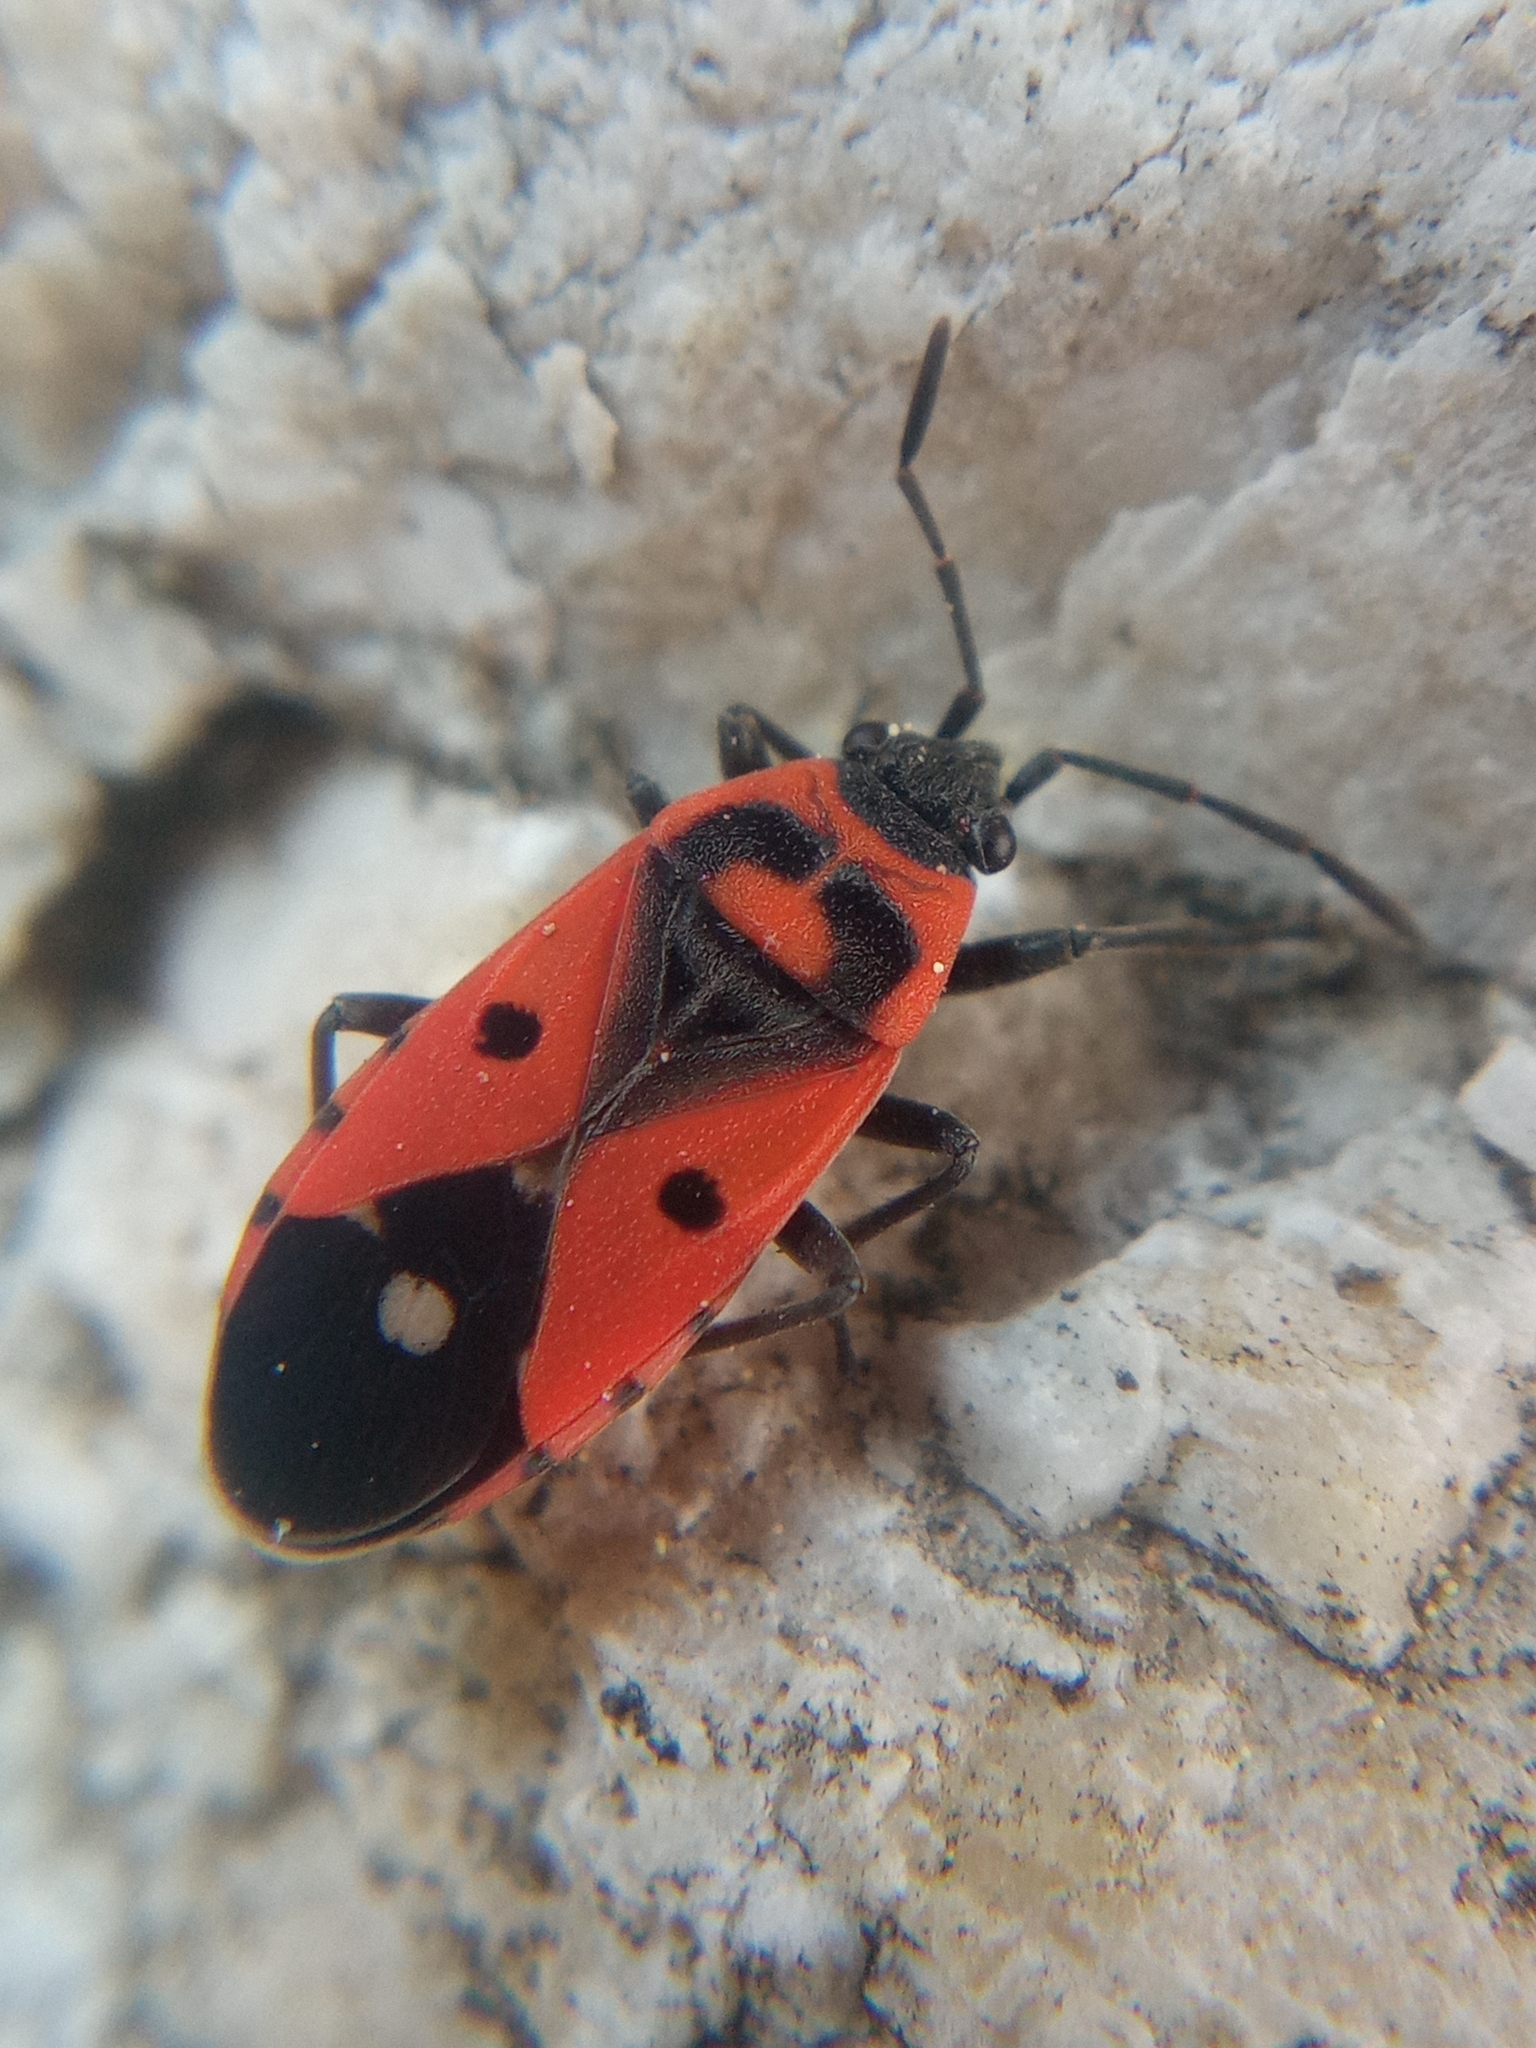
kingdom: Animalia
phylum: Arthropoda
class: Insecta
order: Hemiptera
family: Lygaeidae
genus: Melanocoryphus
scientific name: Melanocoryphus albomaculatus
